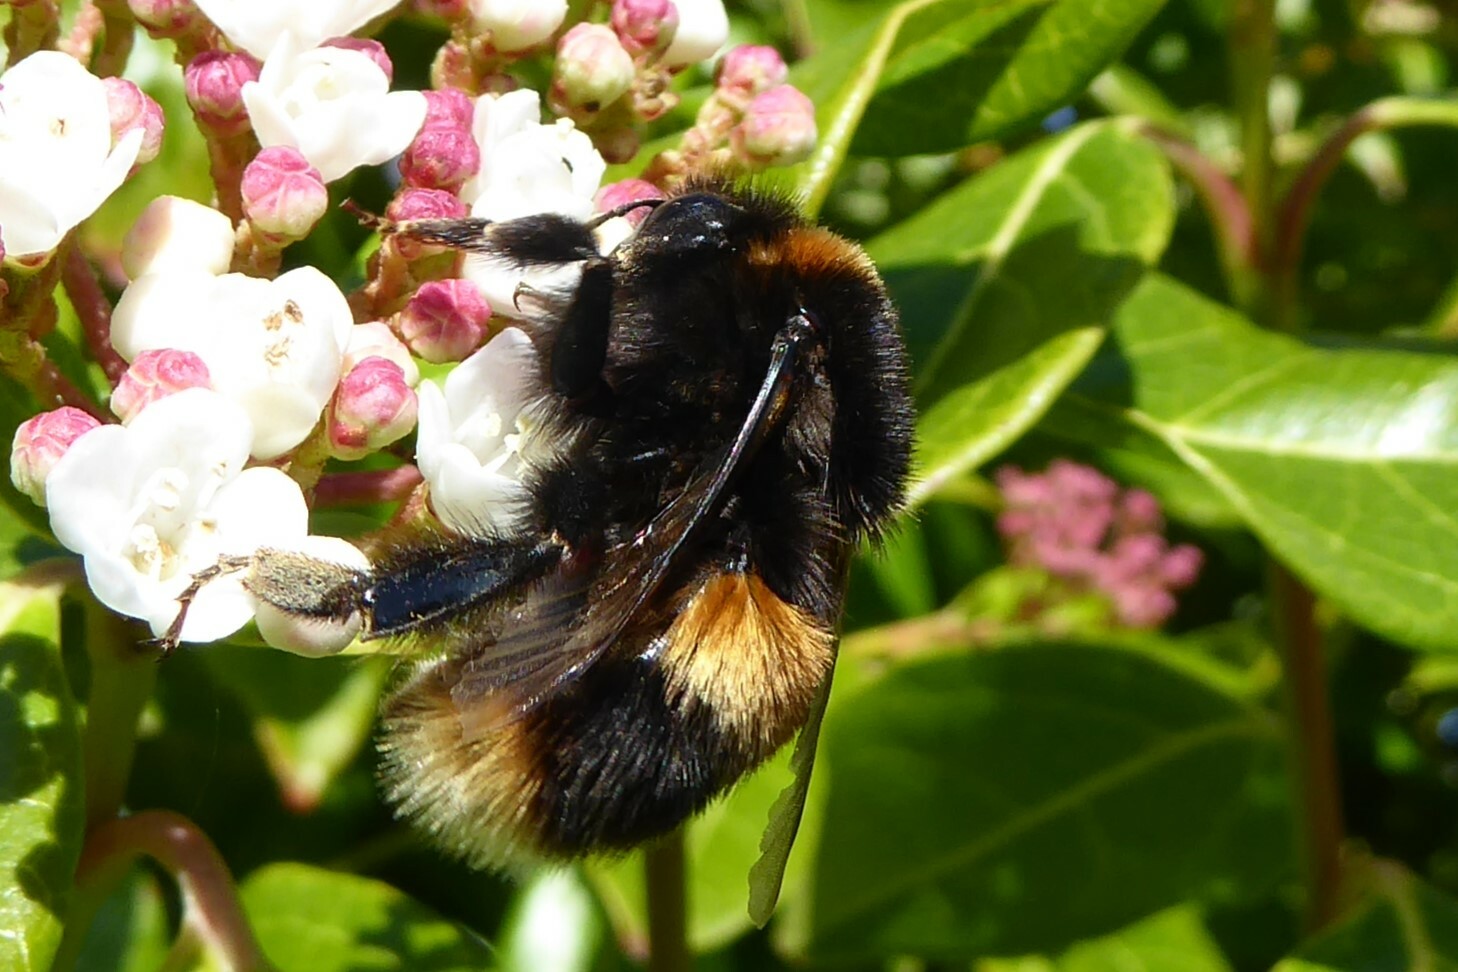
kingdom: Animalia
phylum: Arthropoda
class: Insecta
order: Hymenoptera
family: Apidae
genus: Bombus
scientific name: Bombus terrestris
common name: Buff-tailed bumblebee
